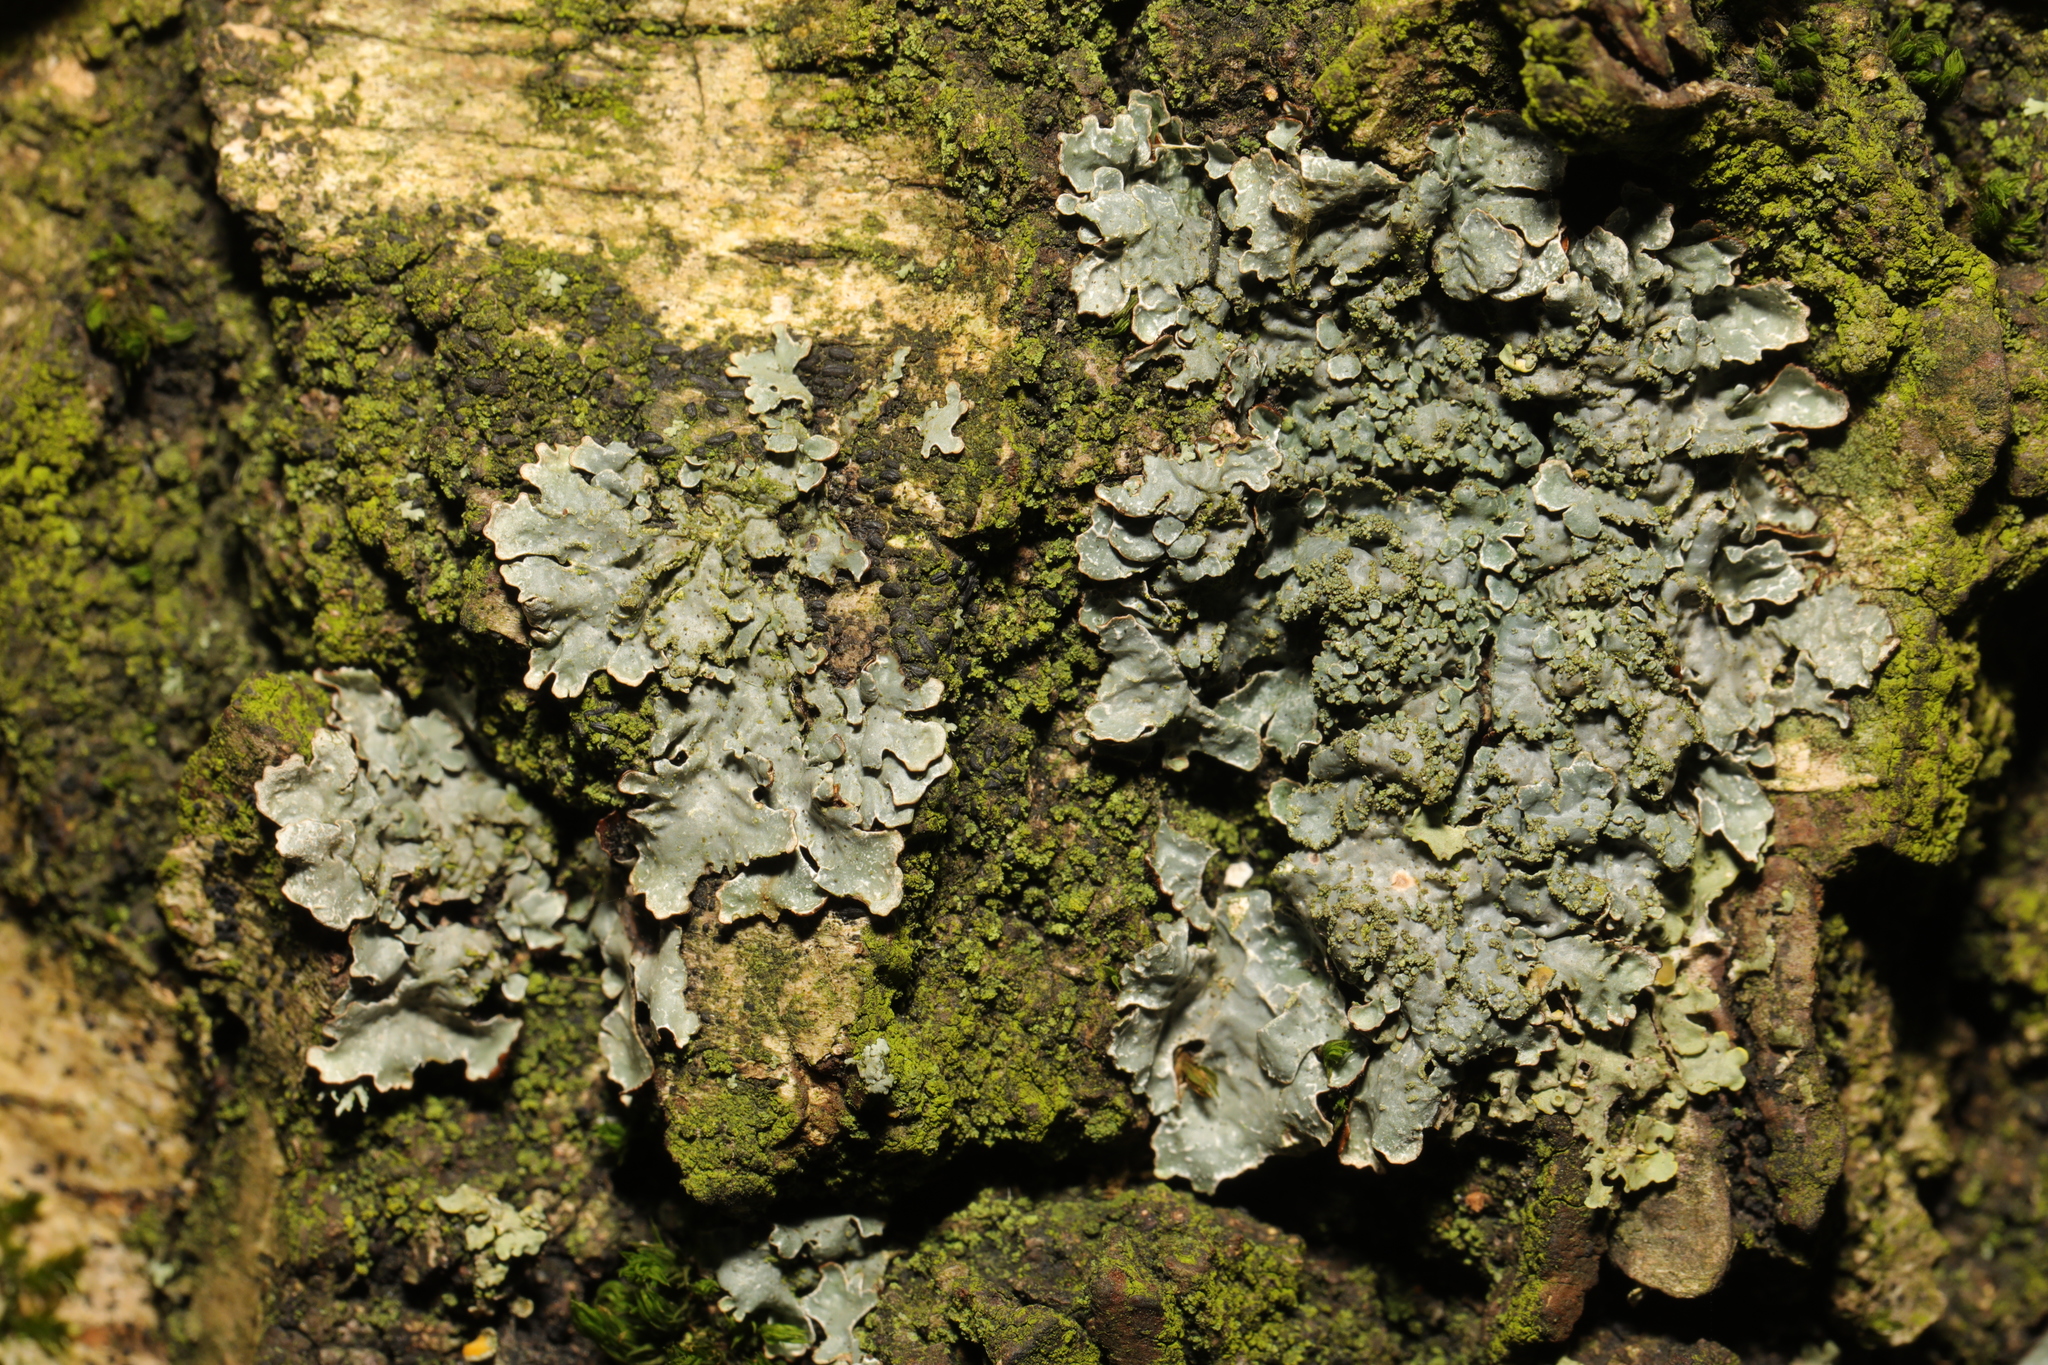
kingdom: Fungi
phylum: Ascomycota
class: Lecanoromycetes
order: Lecanorales
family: Parmeliaceae
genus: Parmelia
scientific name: Parmelia sulcata
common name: Netted shield lichen
